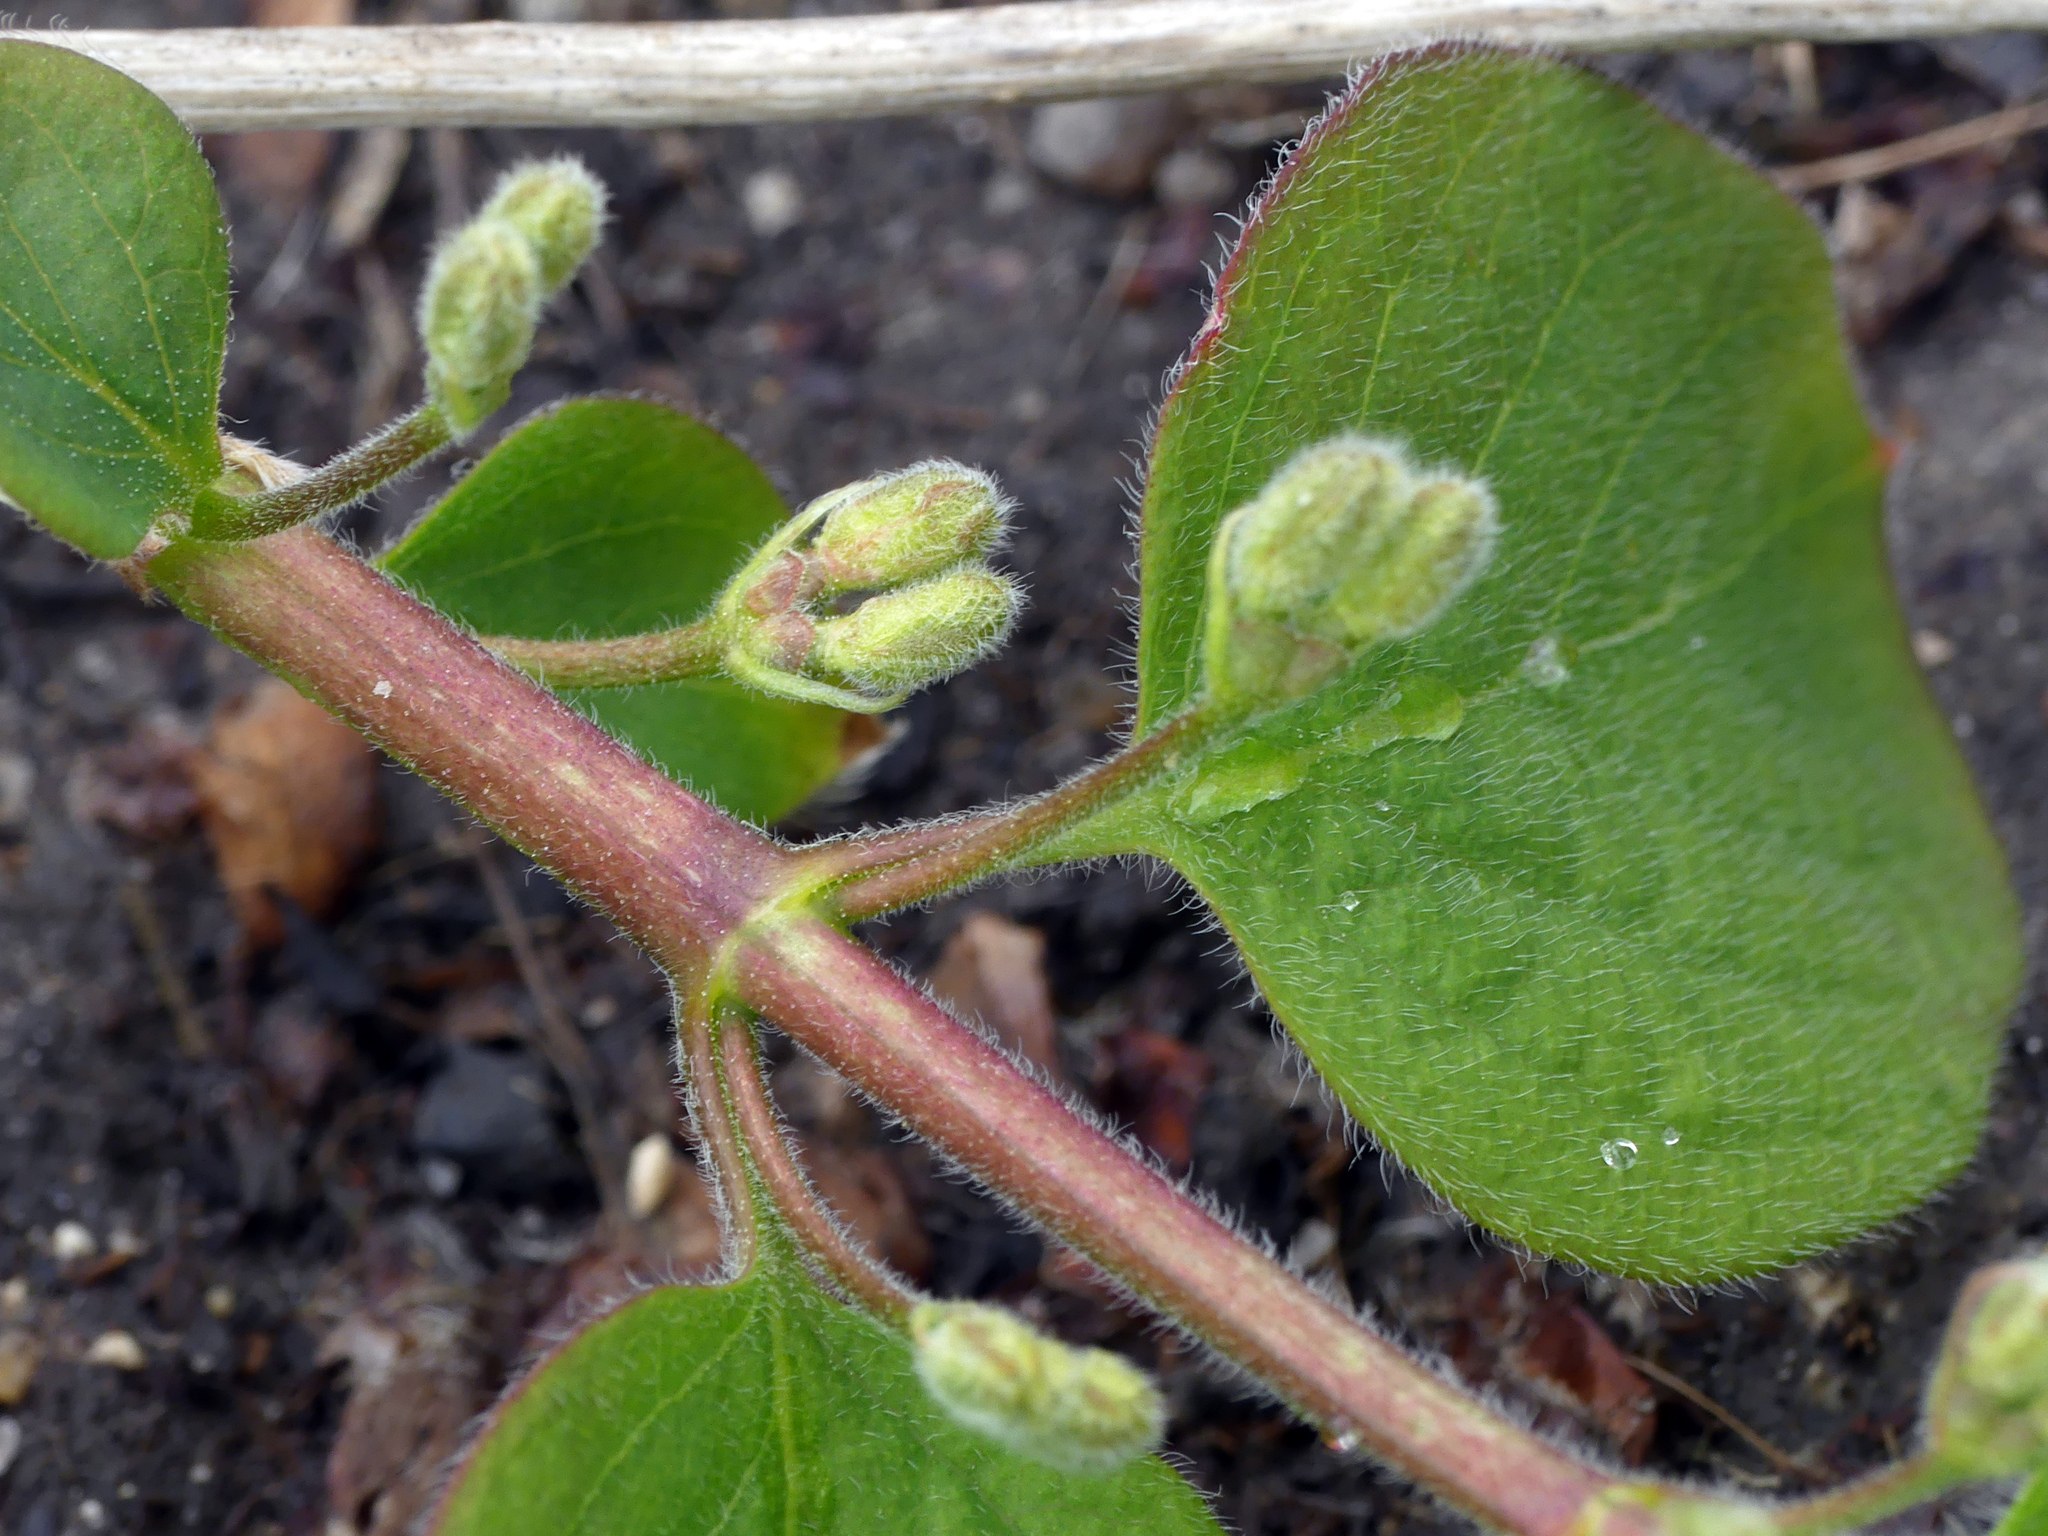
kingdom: Plantae
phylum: Tracheophyta
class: Magnoliopsida
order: Dipsacales
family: Caprifoliaceae
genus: Lonicera
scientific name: Lonicera xylosteum
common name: Fly honeysuckle
